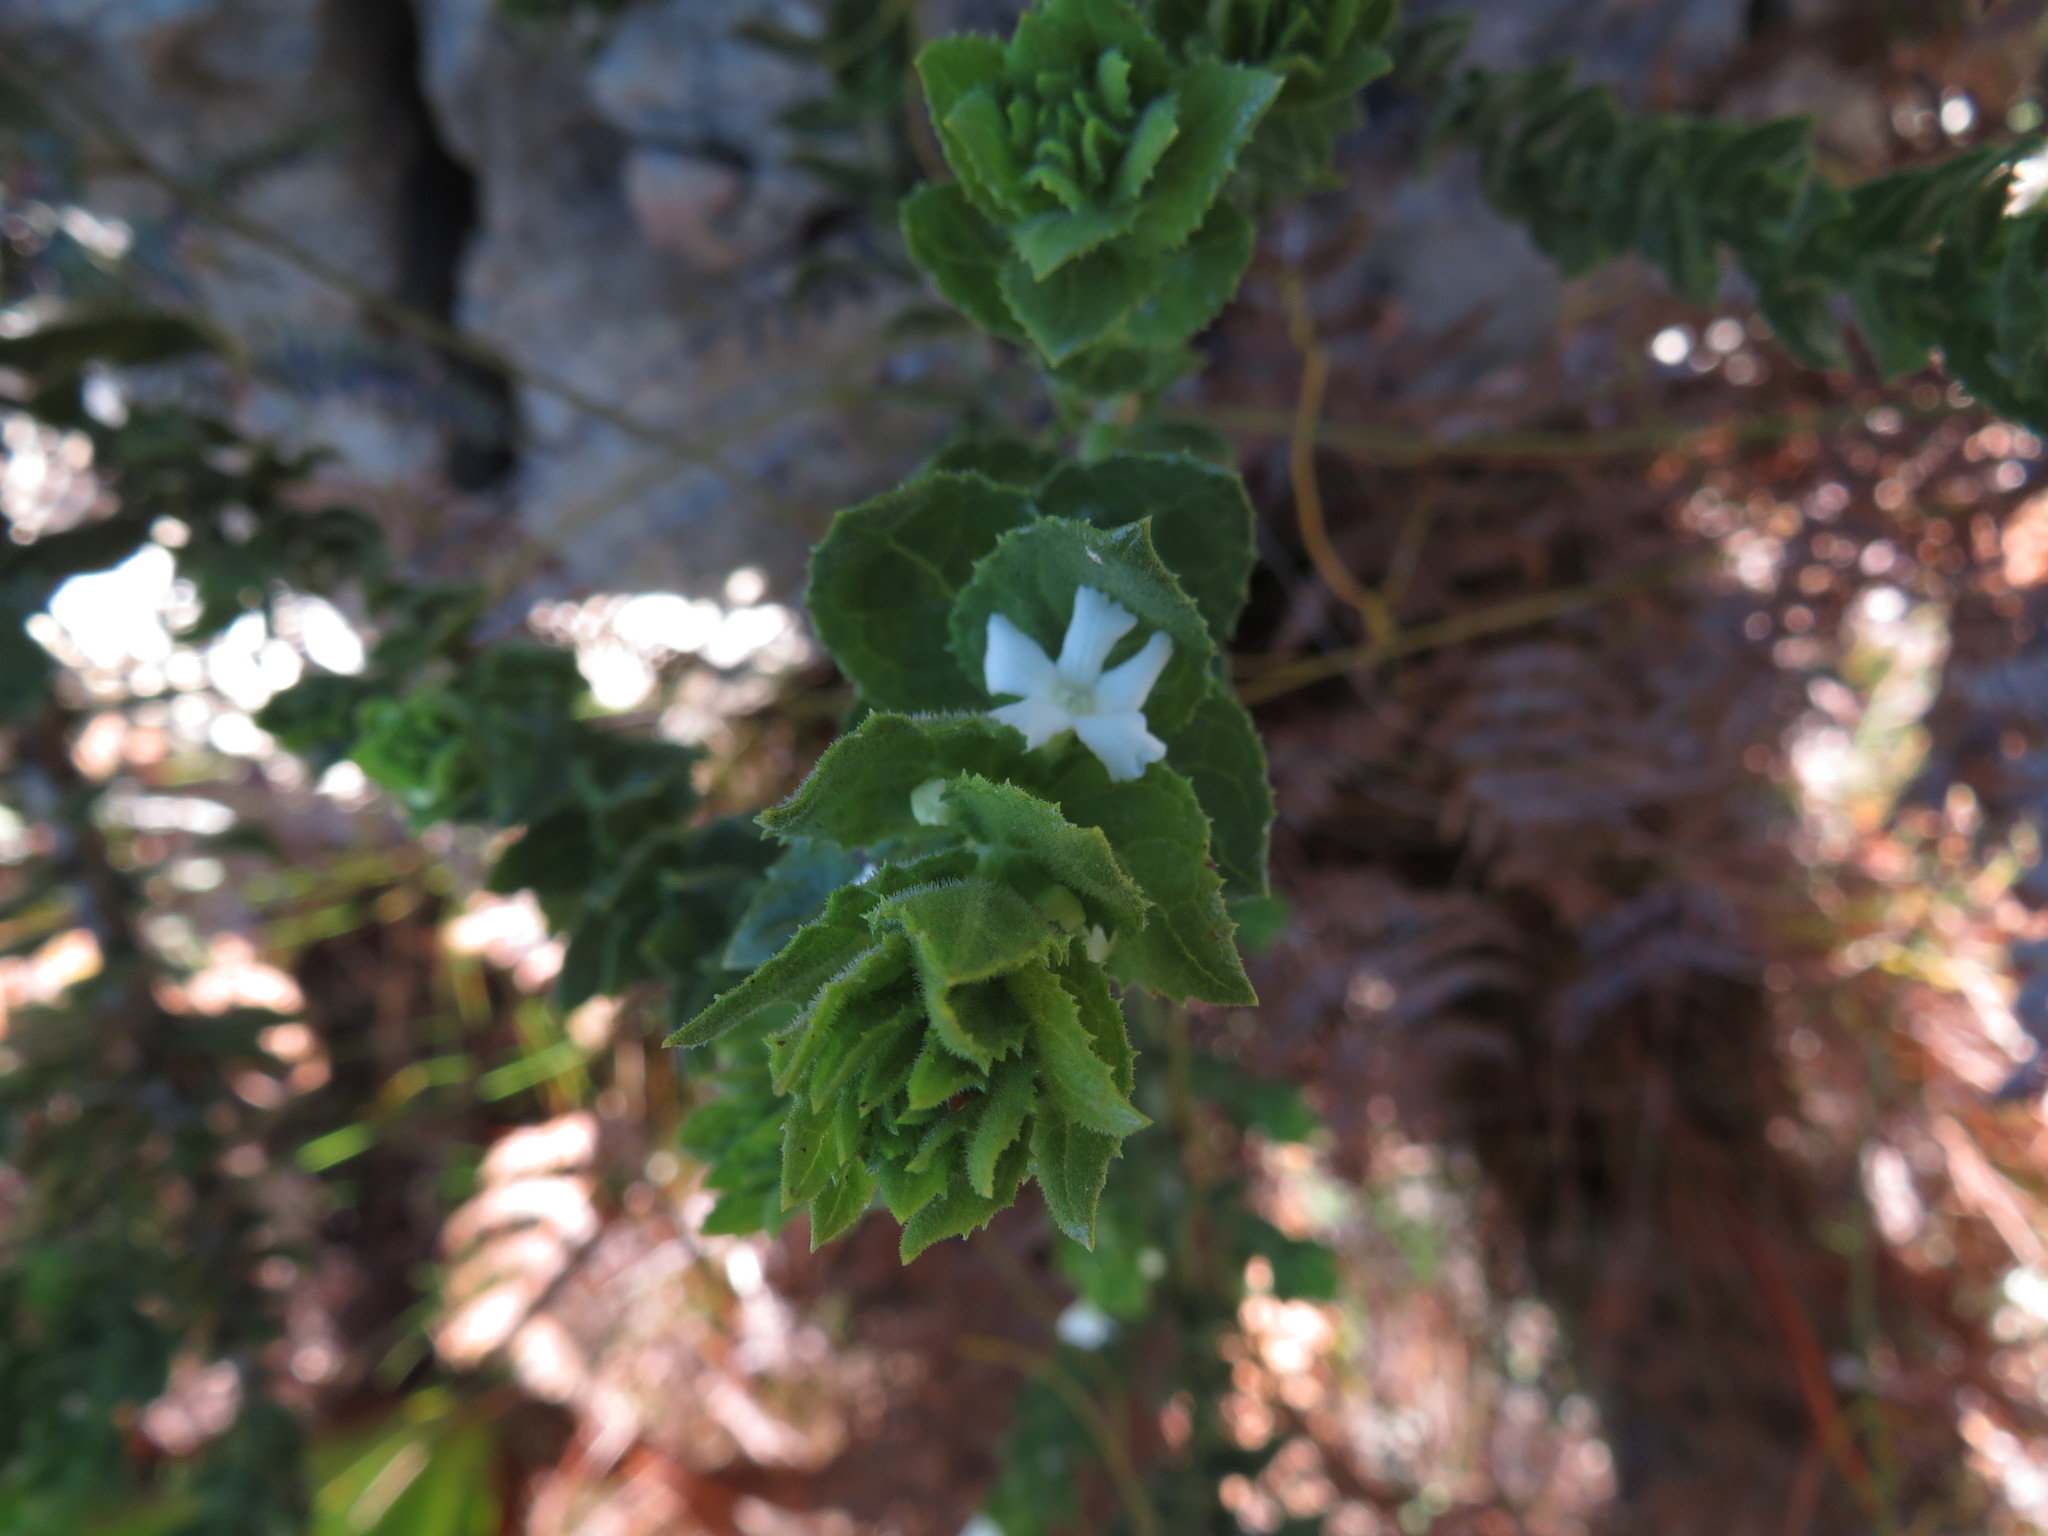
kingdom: Plantae
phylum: Tracheophyta
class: Magnoliopsida
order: Lamiales
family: Scrophulariaceae
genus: Oftia
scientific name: Oftia africana
